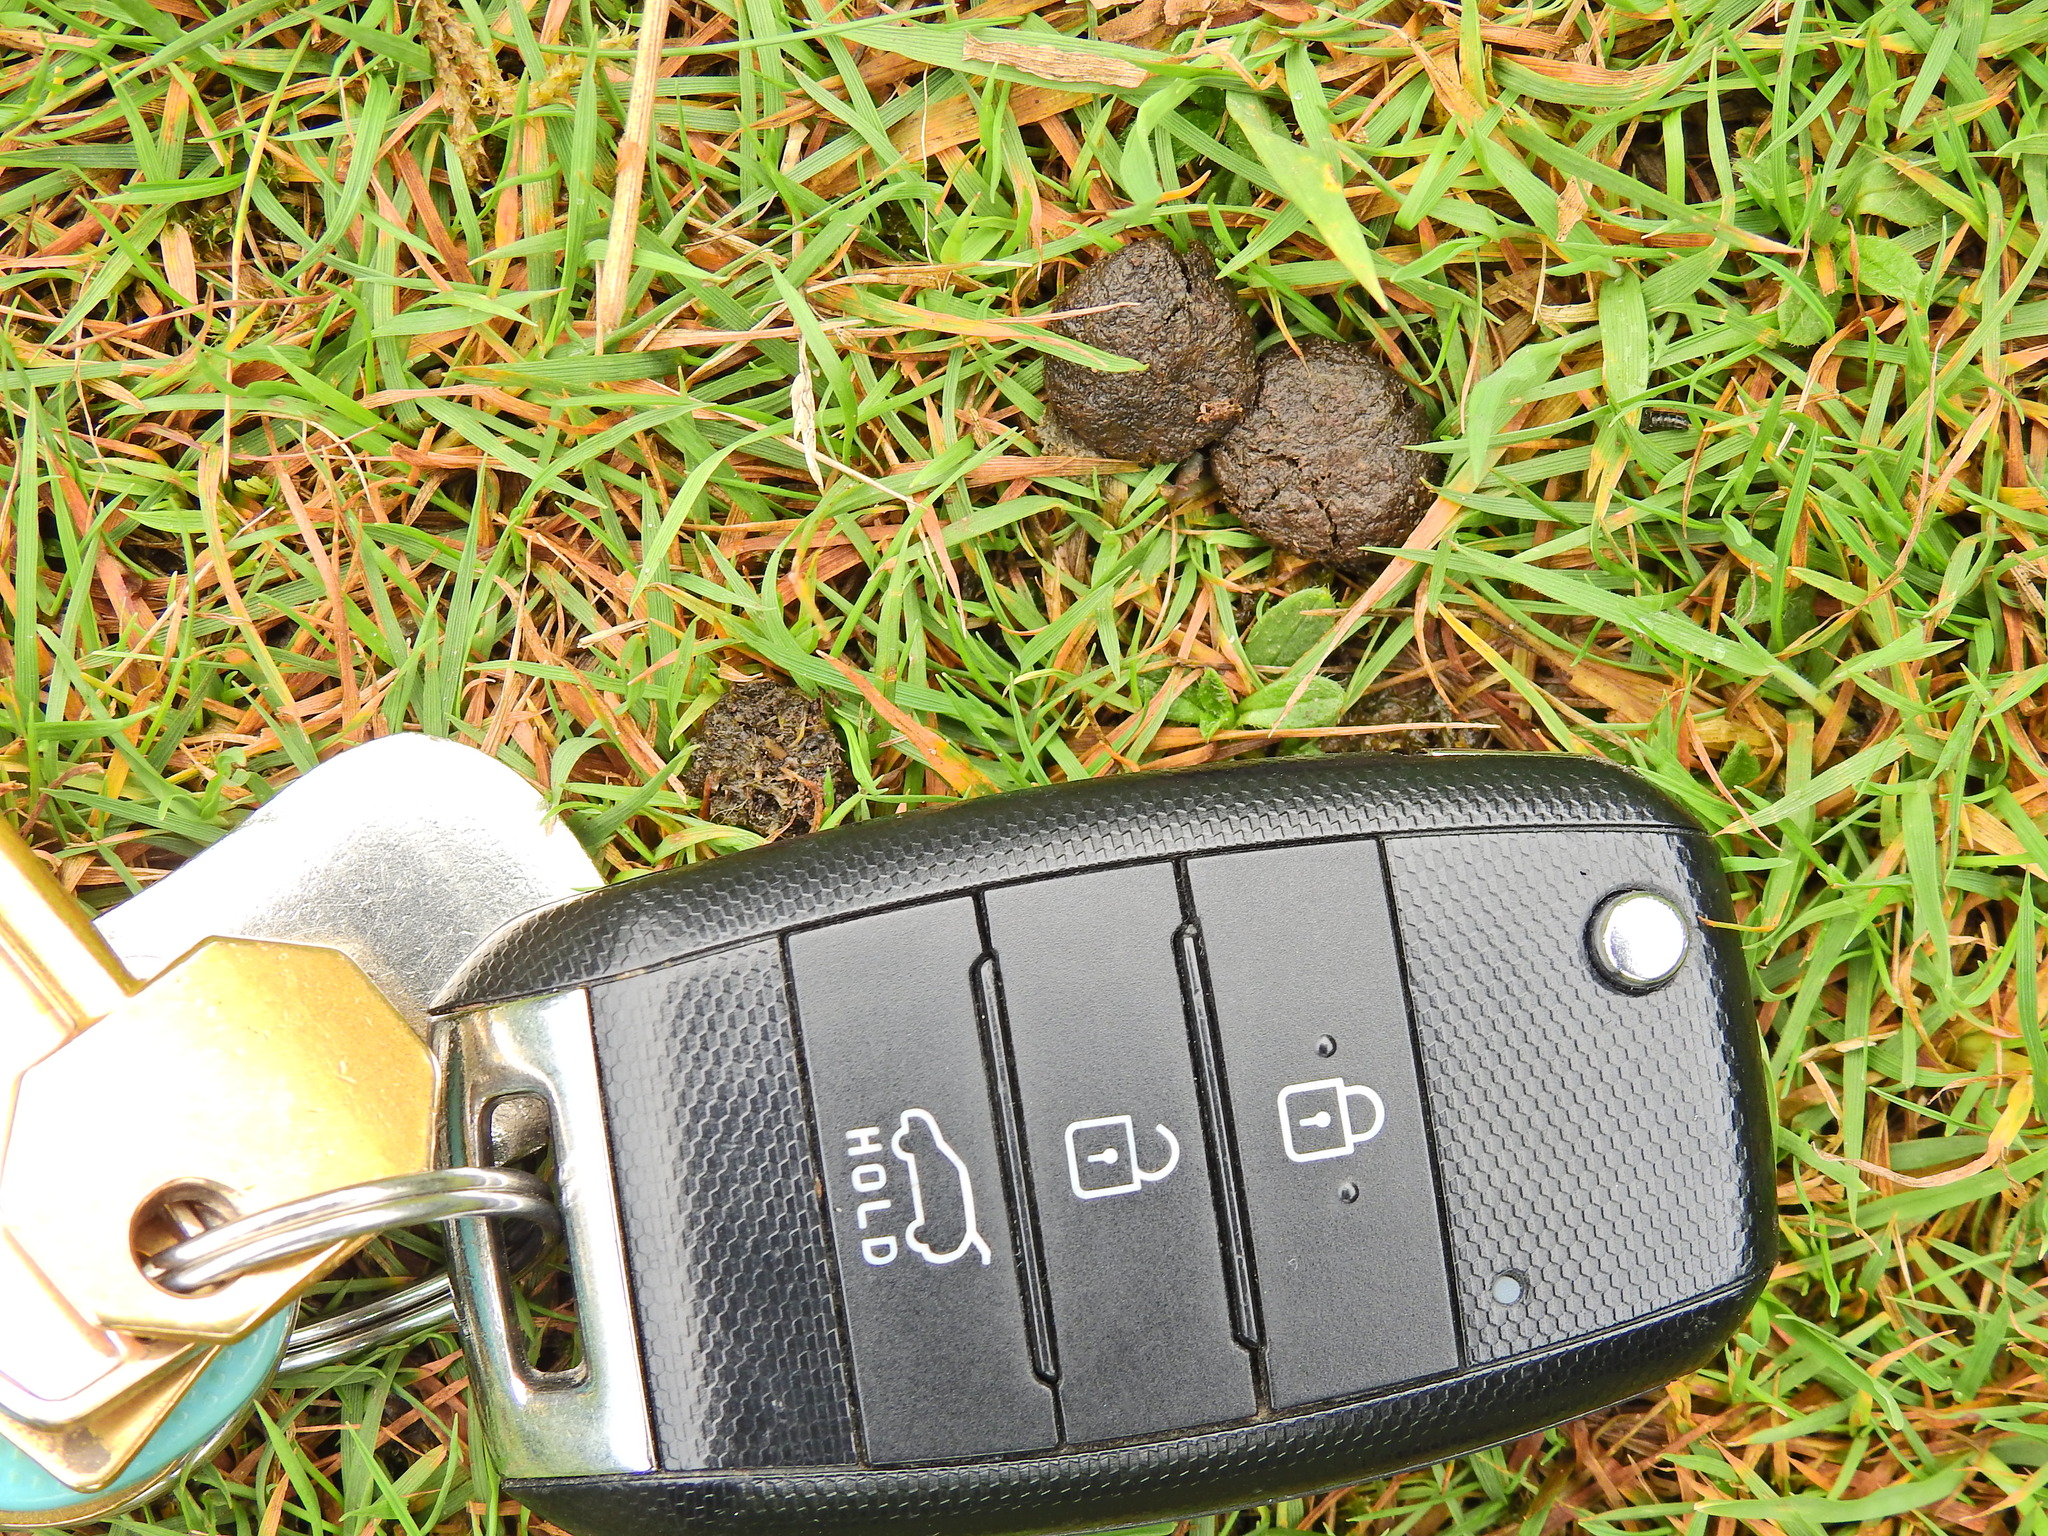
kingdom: Animalia
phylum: Chordata
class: Mammalia
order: Lagomorpha
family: Leporidae
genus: Oryctolagus
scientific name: Oryctolagus cuniculus
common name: European rabbit
